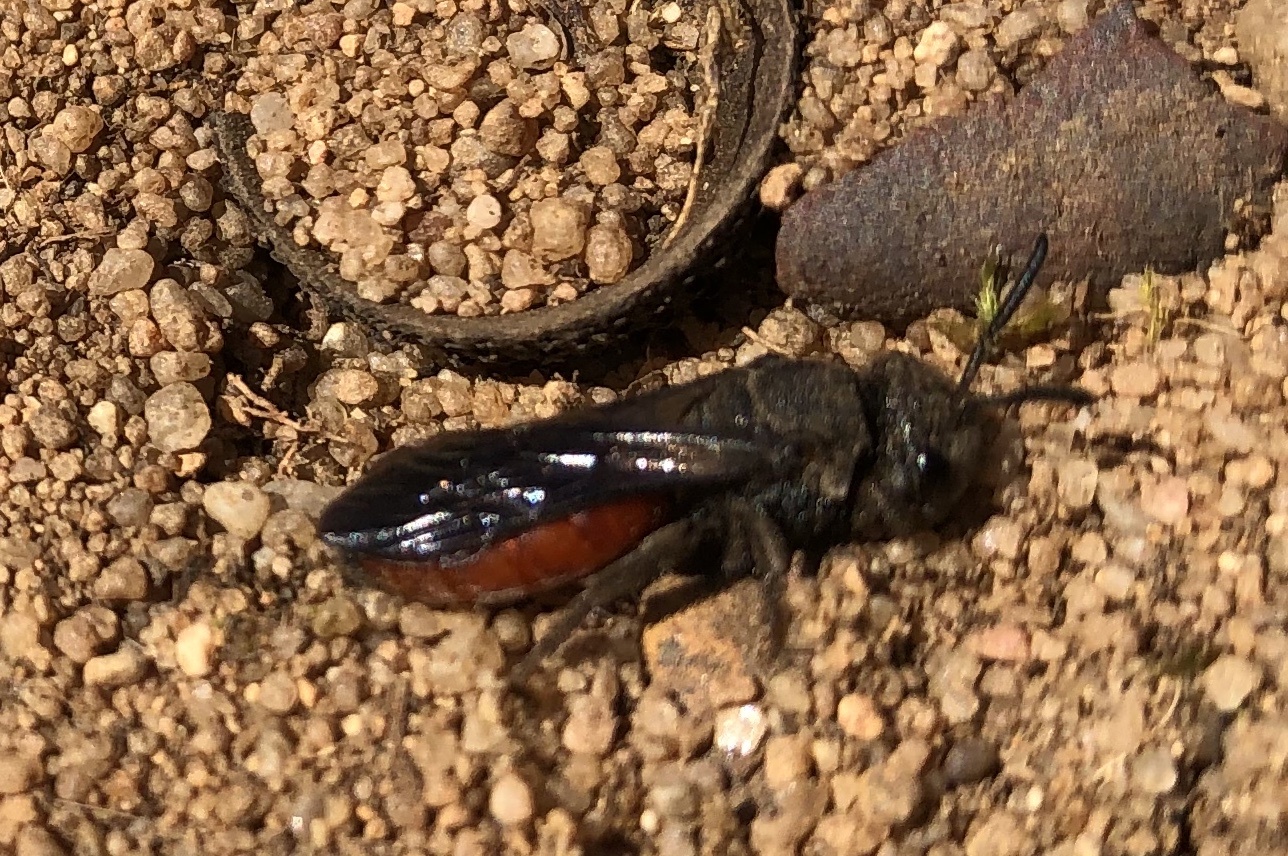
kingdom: Animalia
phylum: Arthropoda
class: Insecta
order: Hymenoptera
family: Halictidae
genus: Sphecodes
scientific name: Sphecodes albilabris
